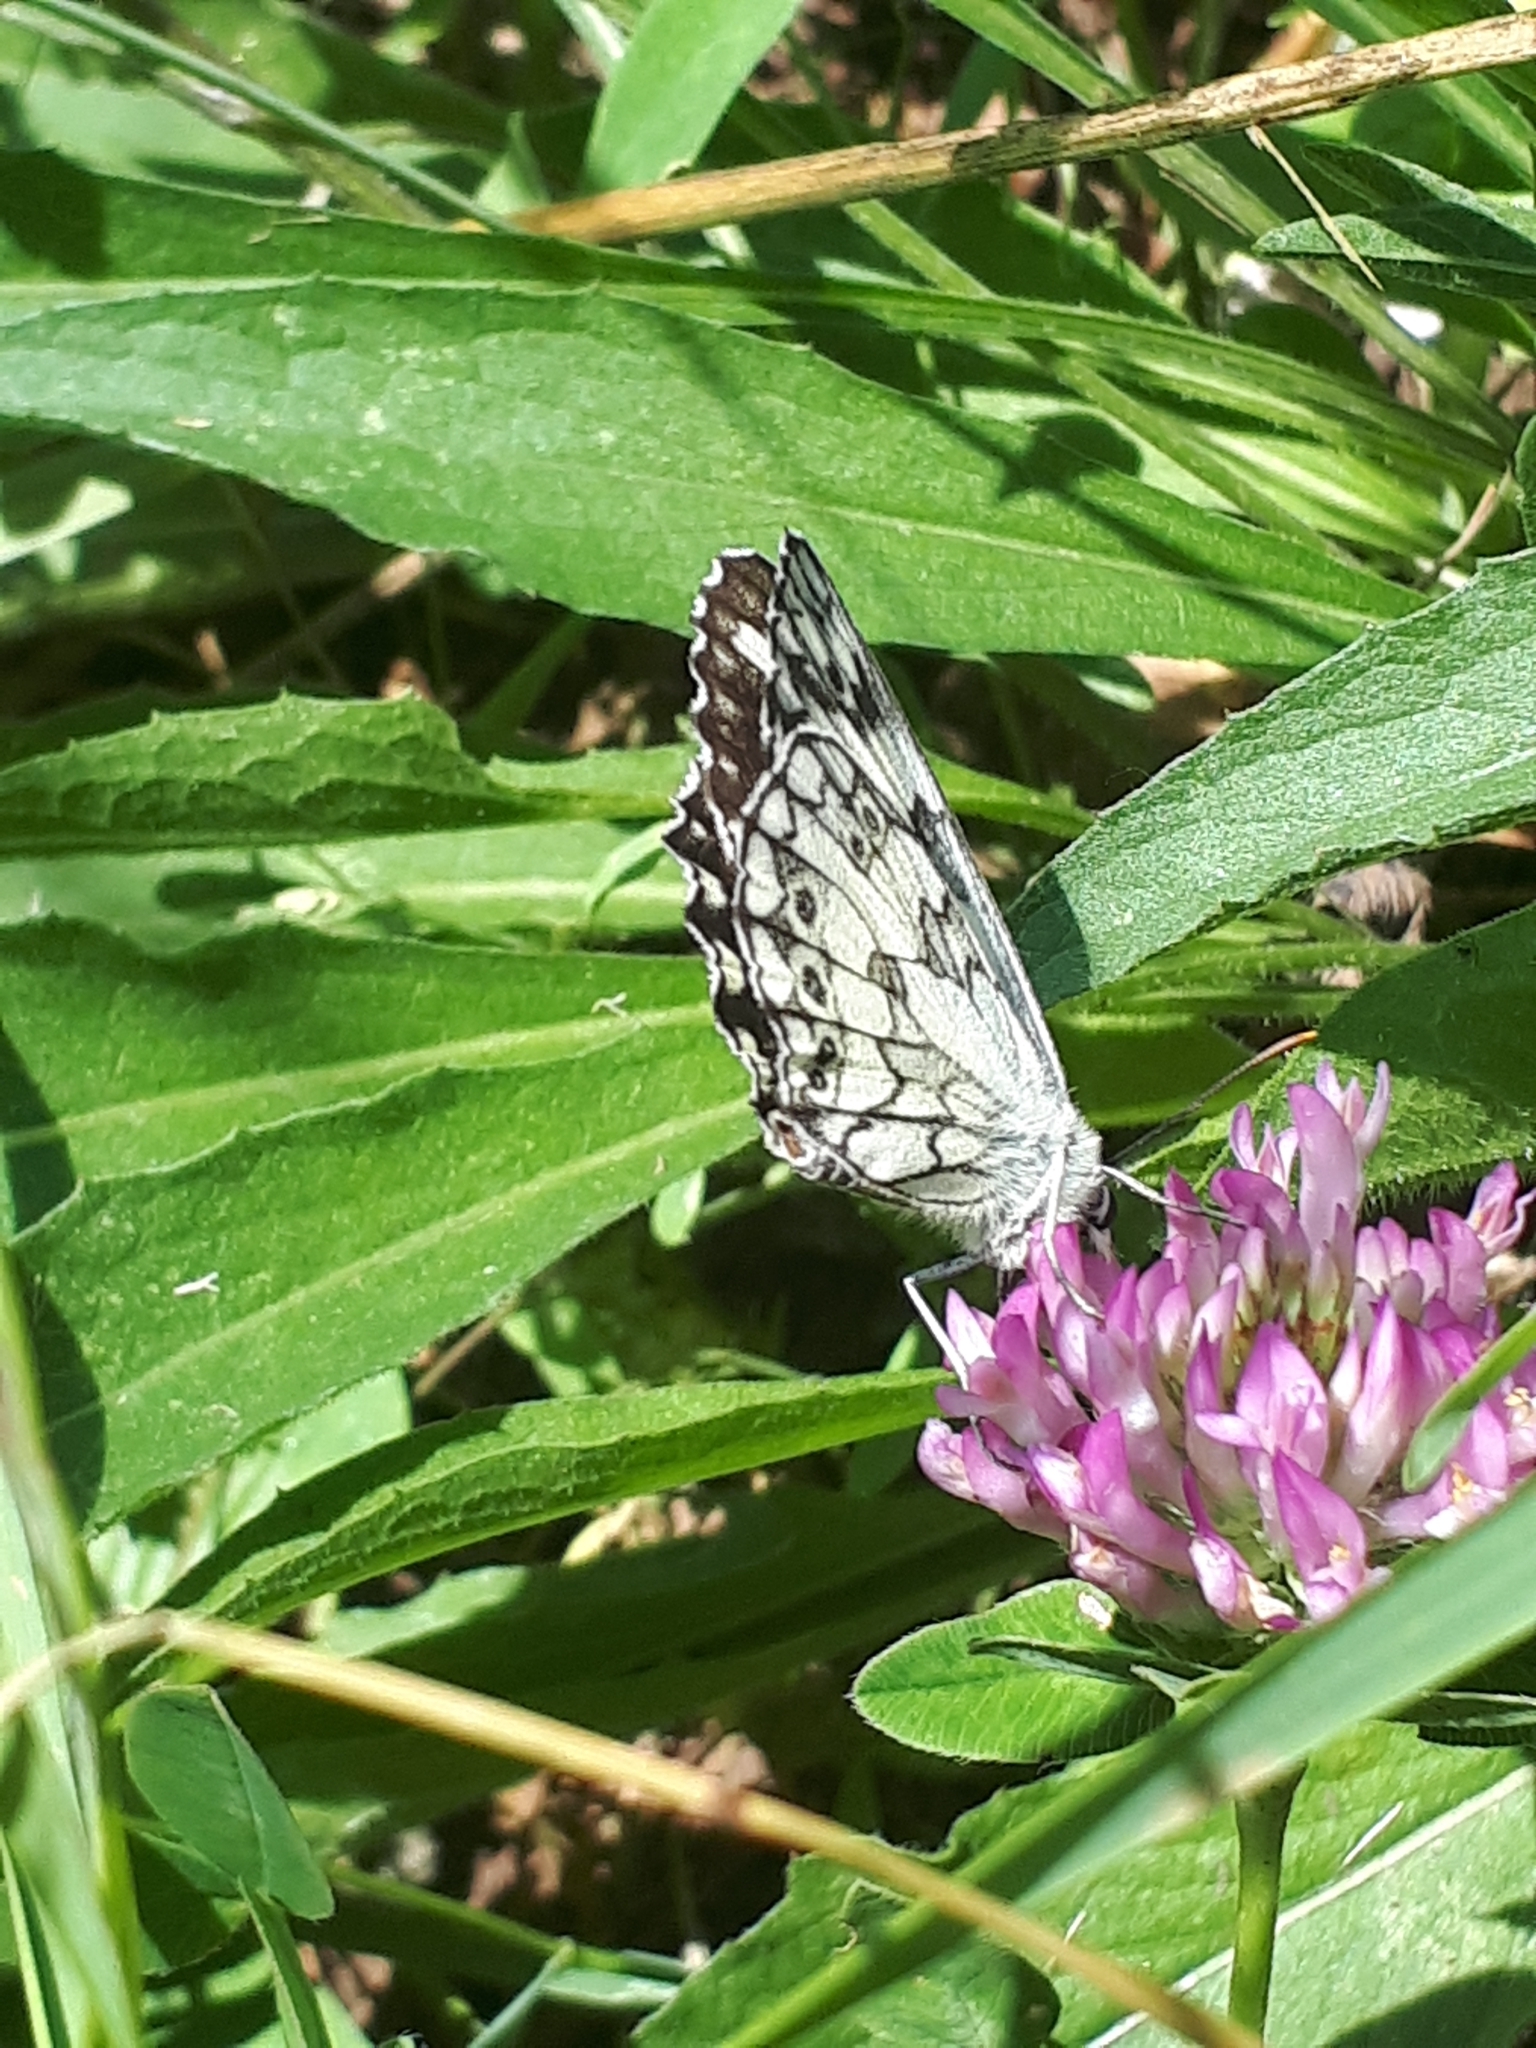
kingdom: Animalia
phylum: Arthropoda
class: Insecta
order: Lepidoptera
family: Nymphalidae
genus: Melanargia
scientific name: Melanargia galathea
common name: Marbled white
